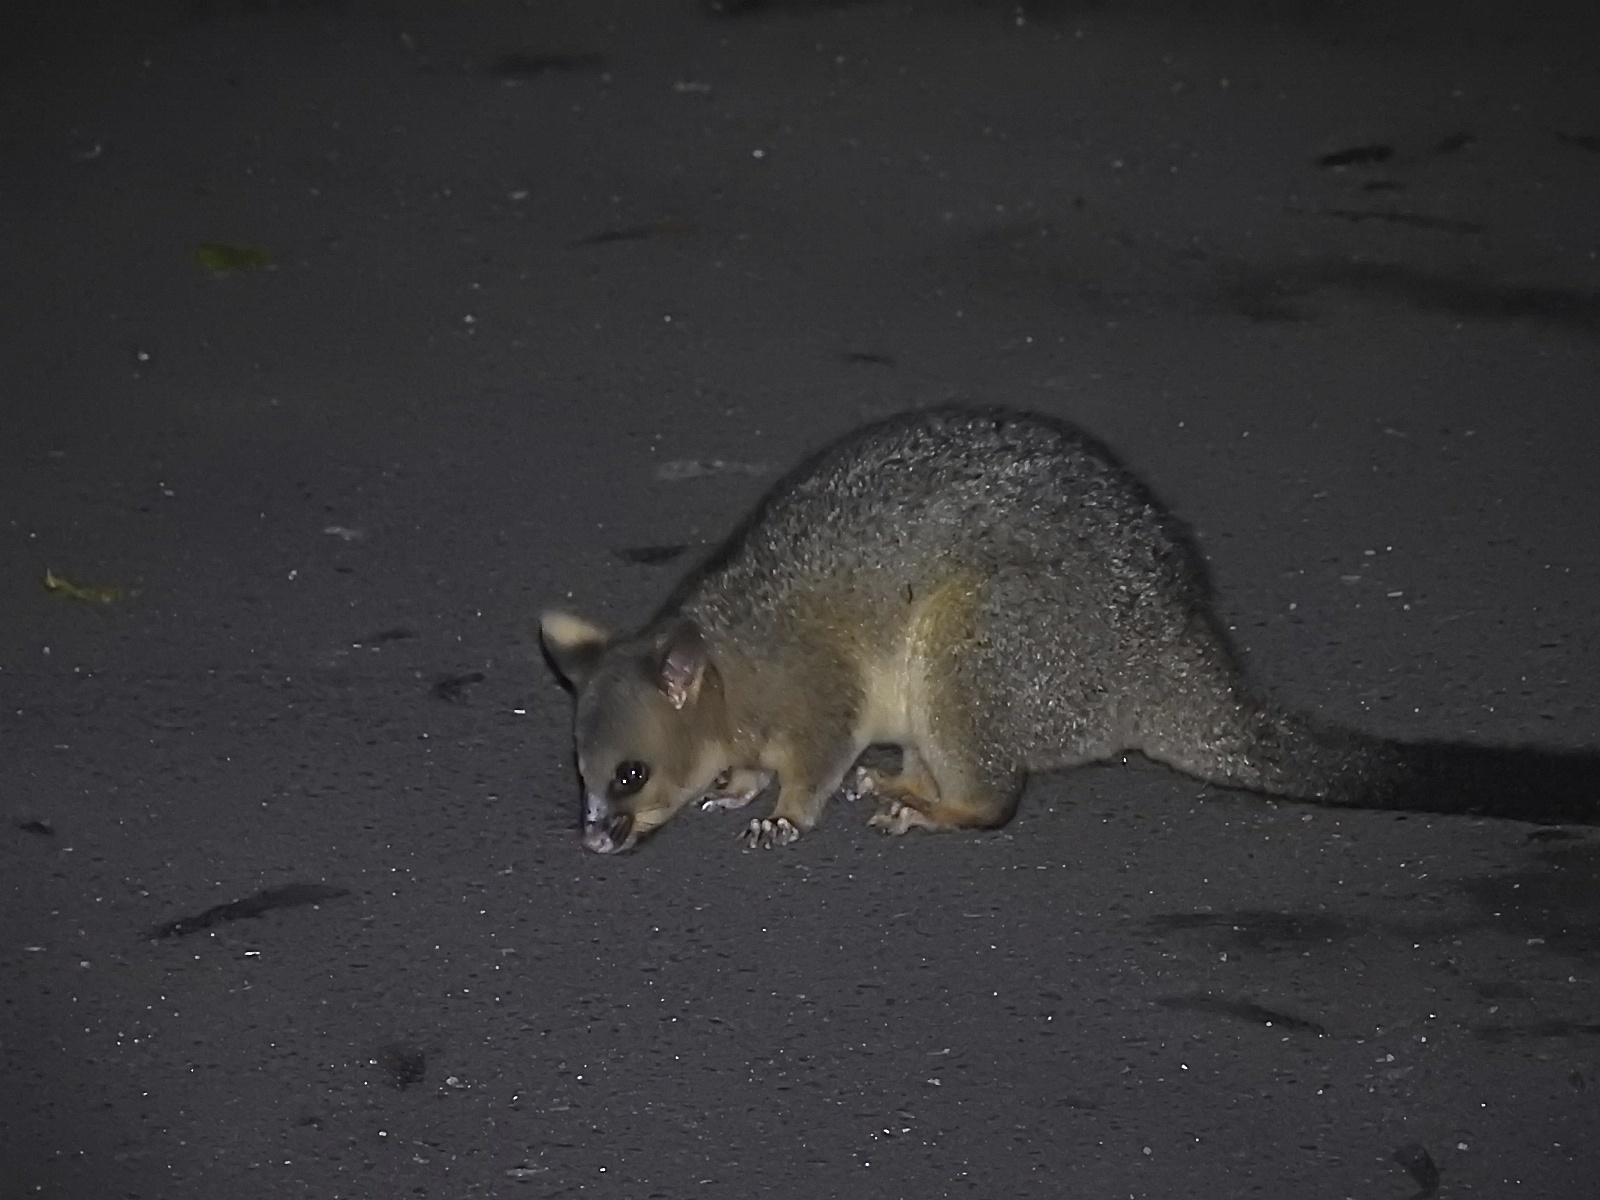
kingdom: Animalia
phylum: Chordata
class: Mammalia
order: Diprotodontia
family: Phalangeridae
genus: Trichosurus
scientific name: Trichosurus vulpecula
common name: Common brushtail
